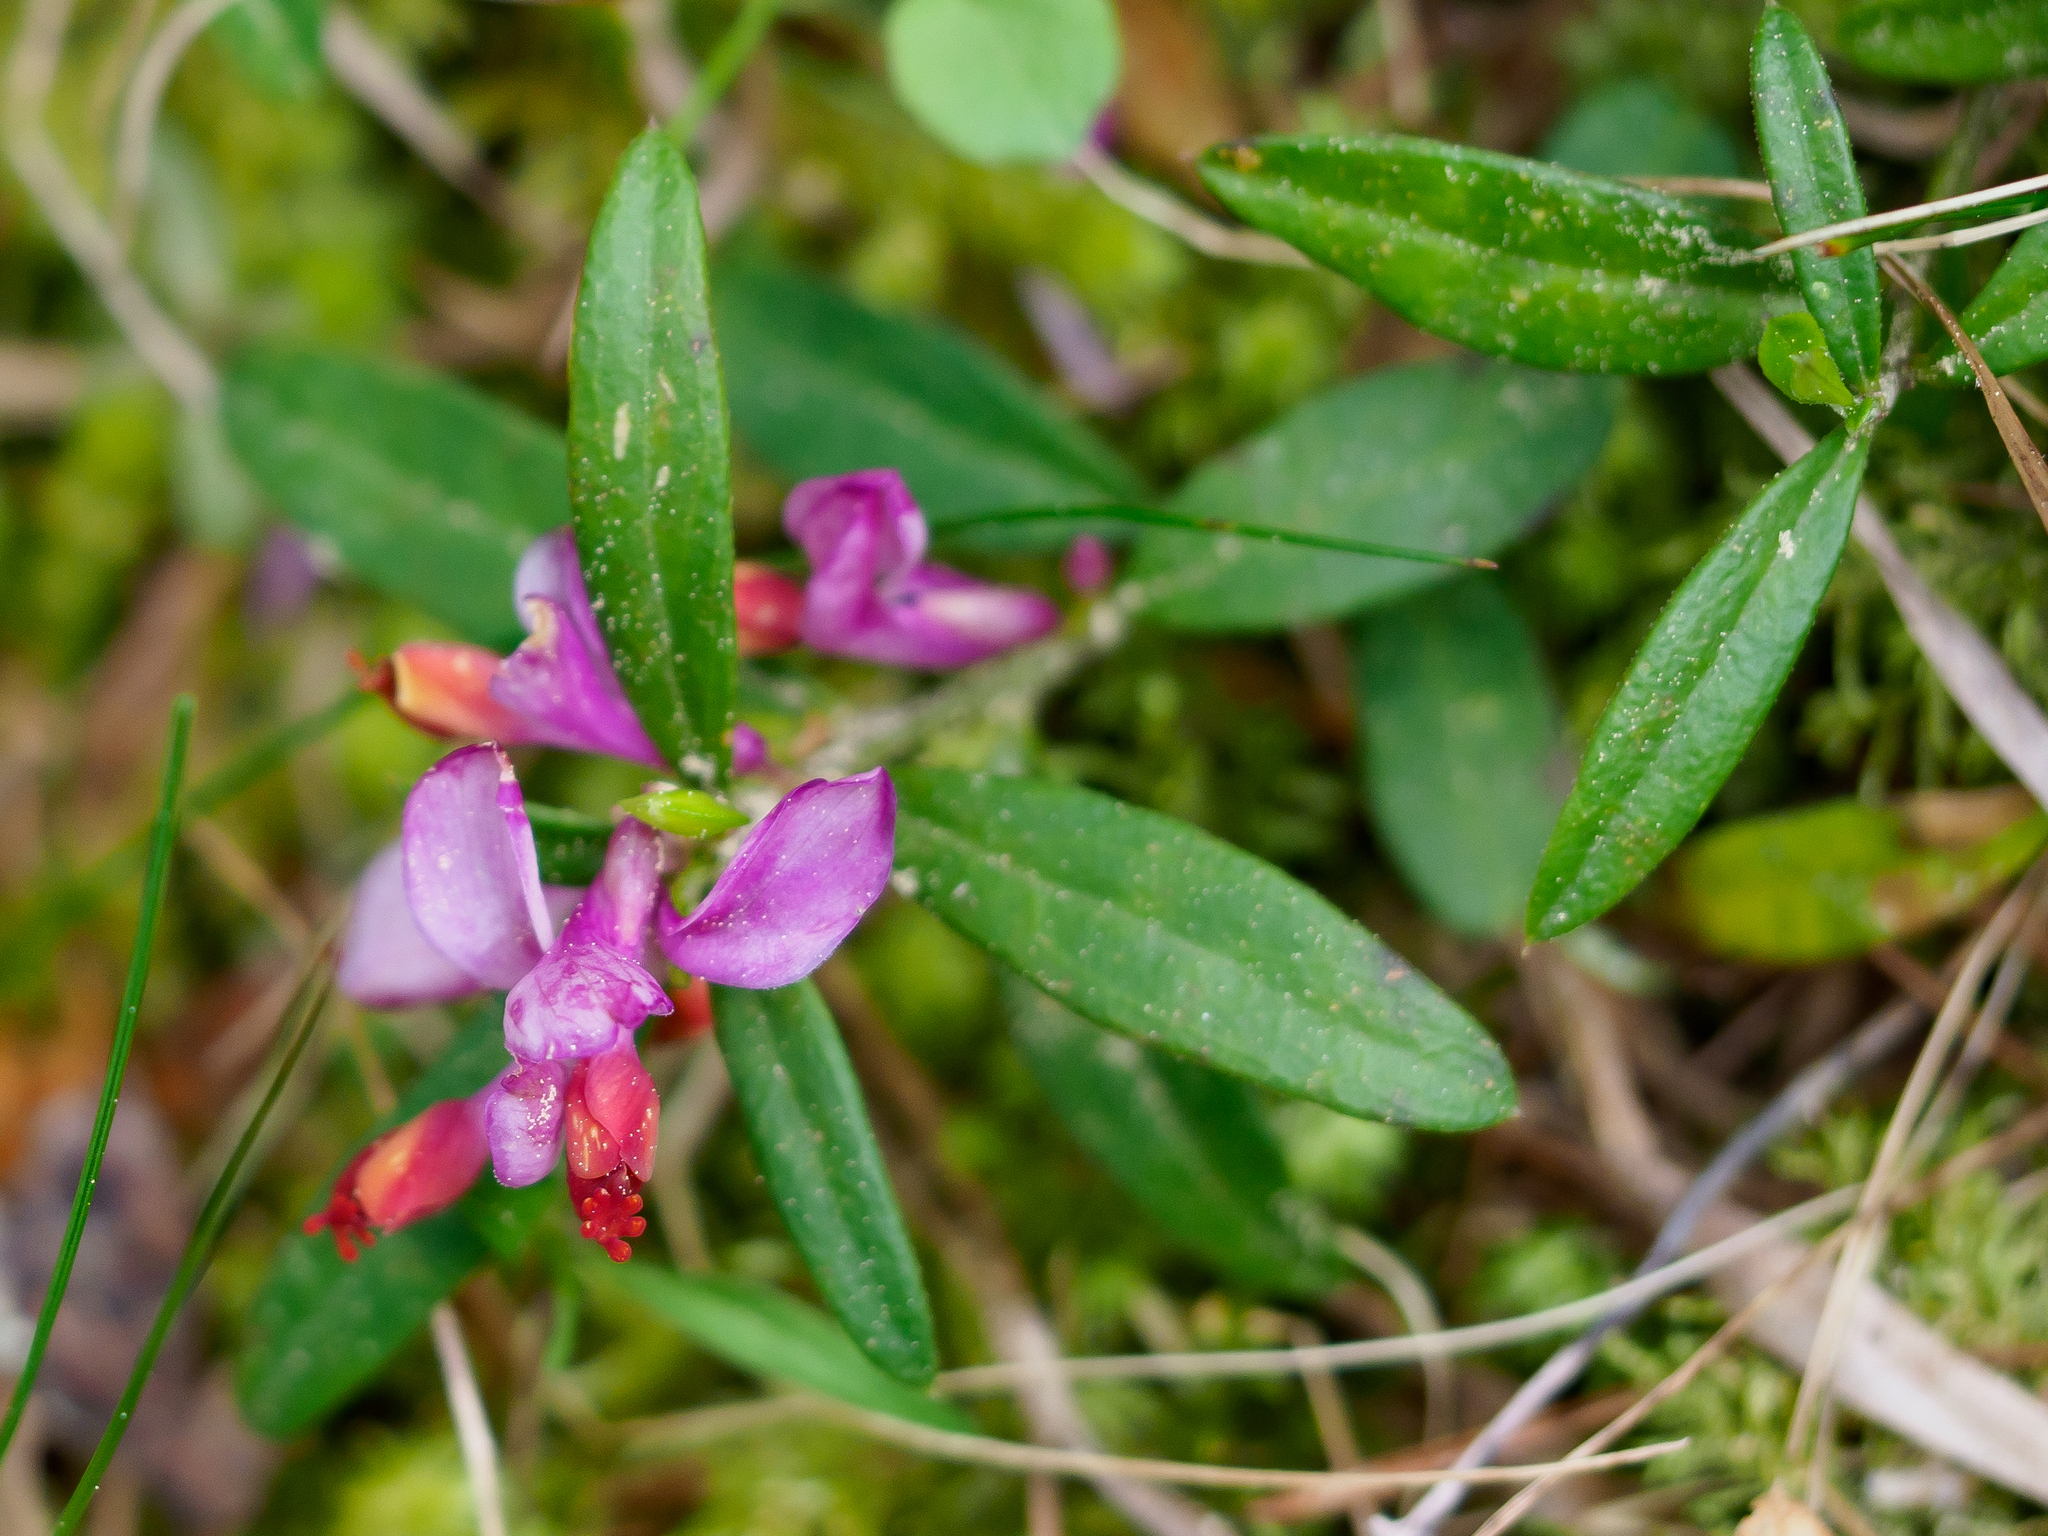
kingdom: Plantae
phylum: Tracheophyta
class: Magnoliopsida
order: Fabales
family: Polygalaceae
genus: Polygaloides
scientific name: Polygaloides chamaebuxus
